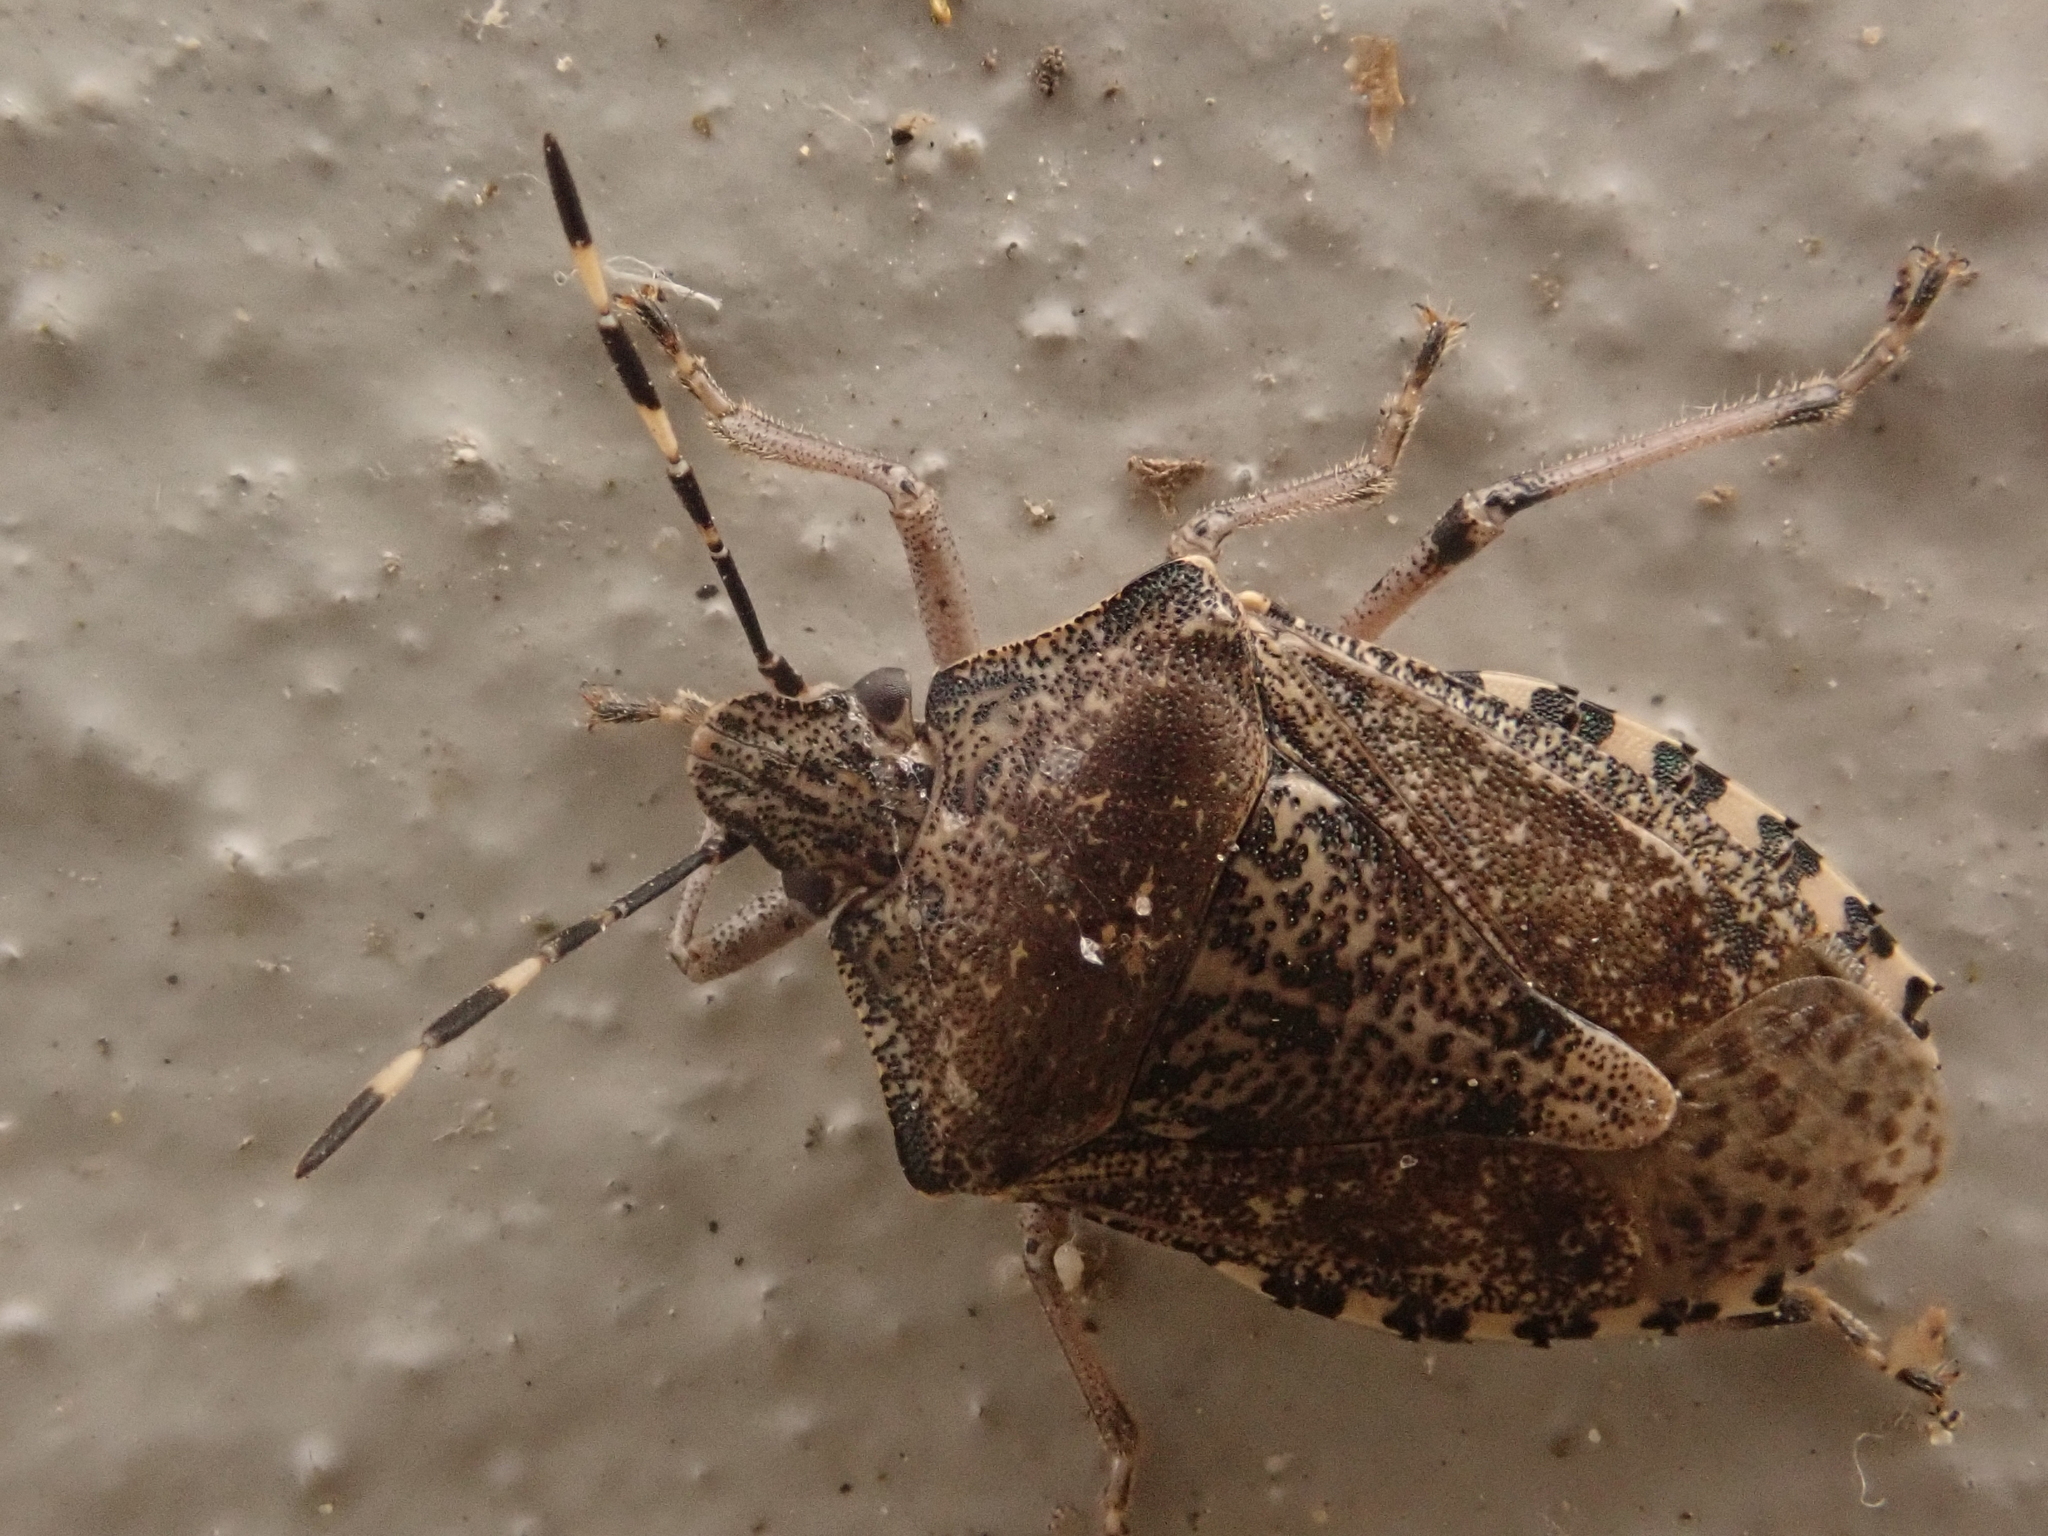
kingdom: Animalia
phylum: Arthropoda
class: Insecta
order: Hemiptera
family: Pentatomidae
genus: Rhaphigaster
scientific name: Rhaphigaster nebulosa
